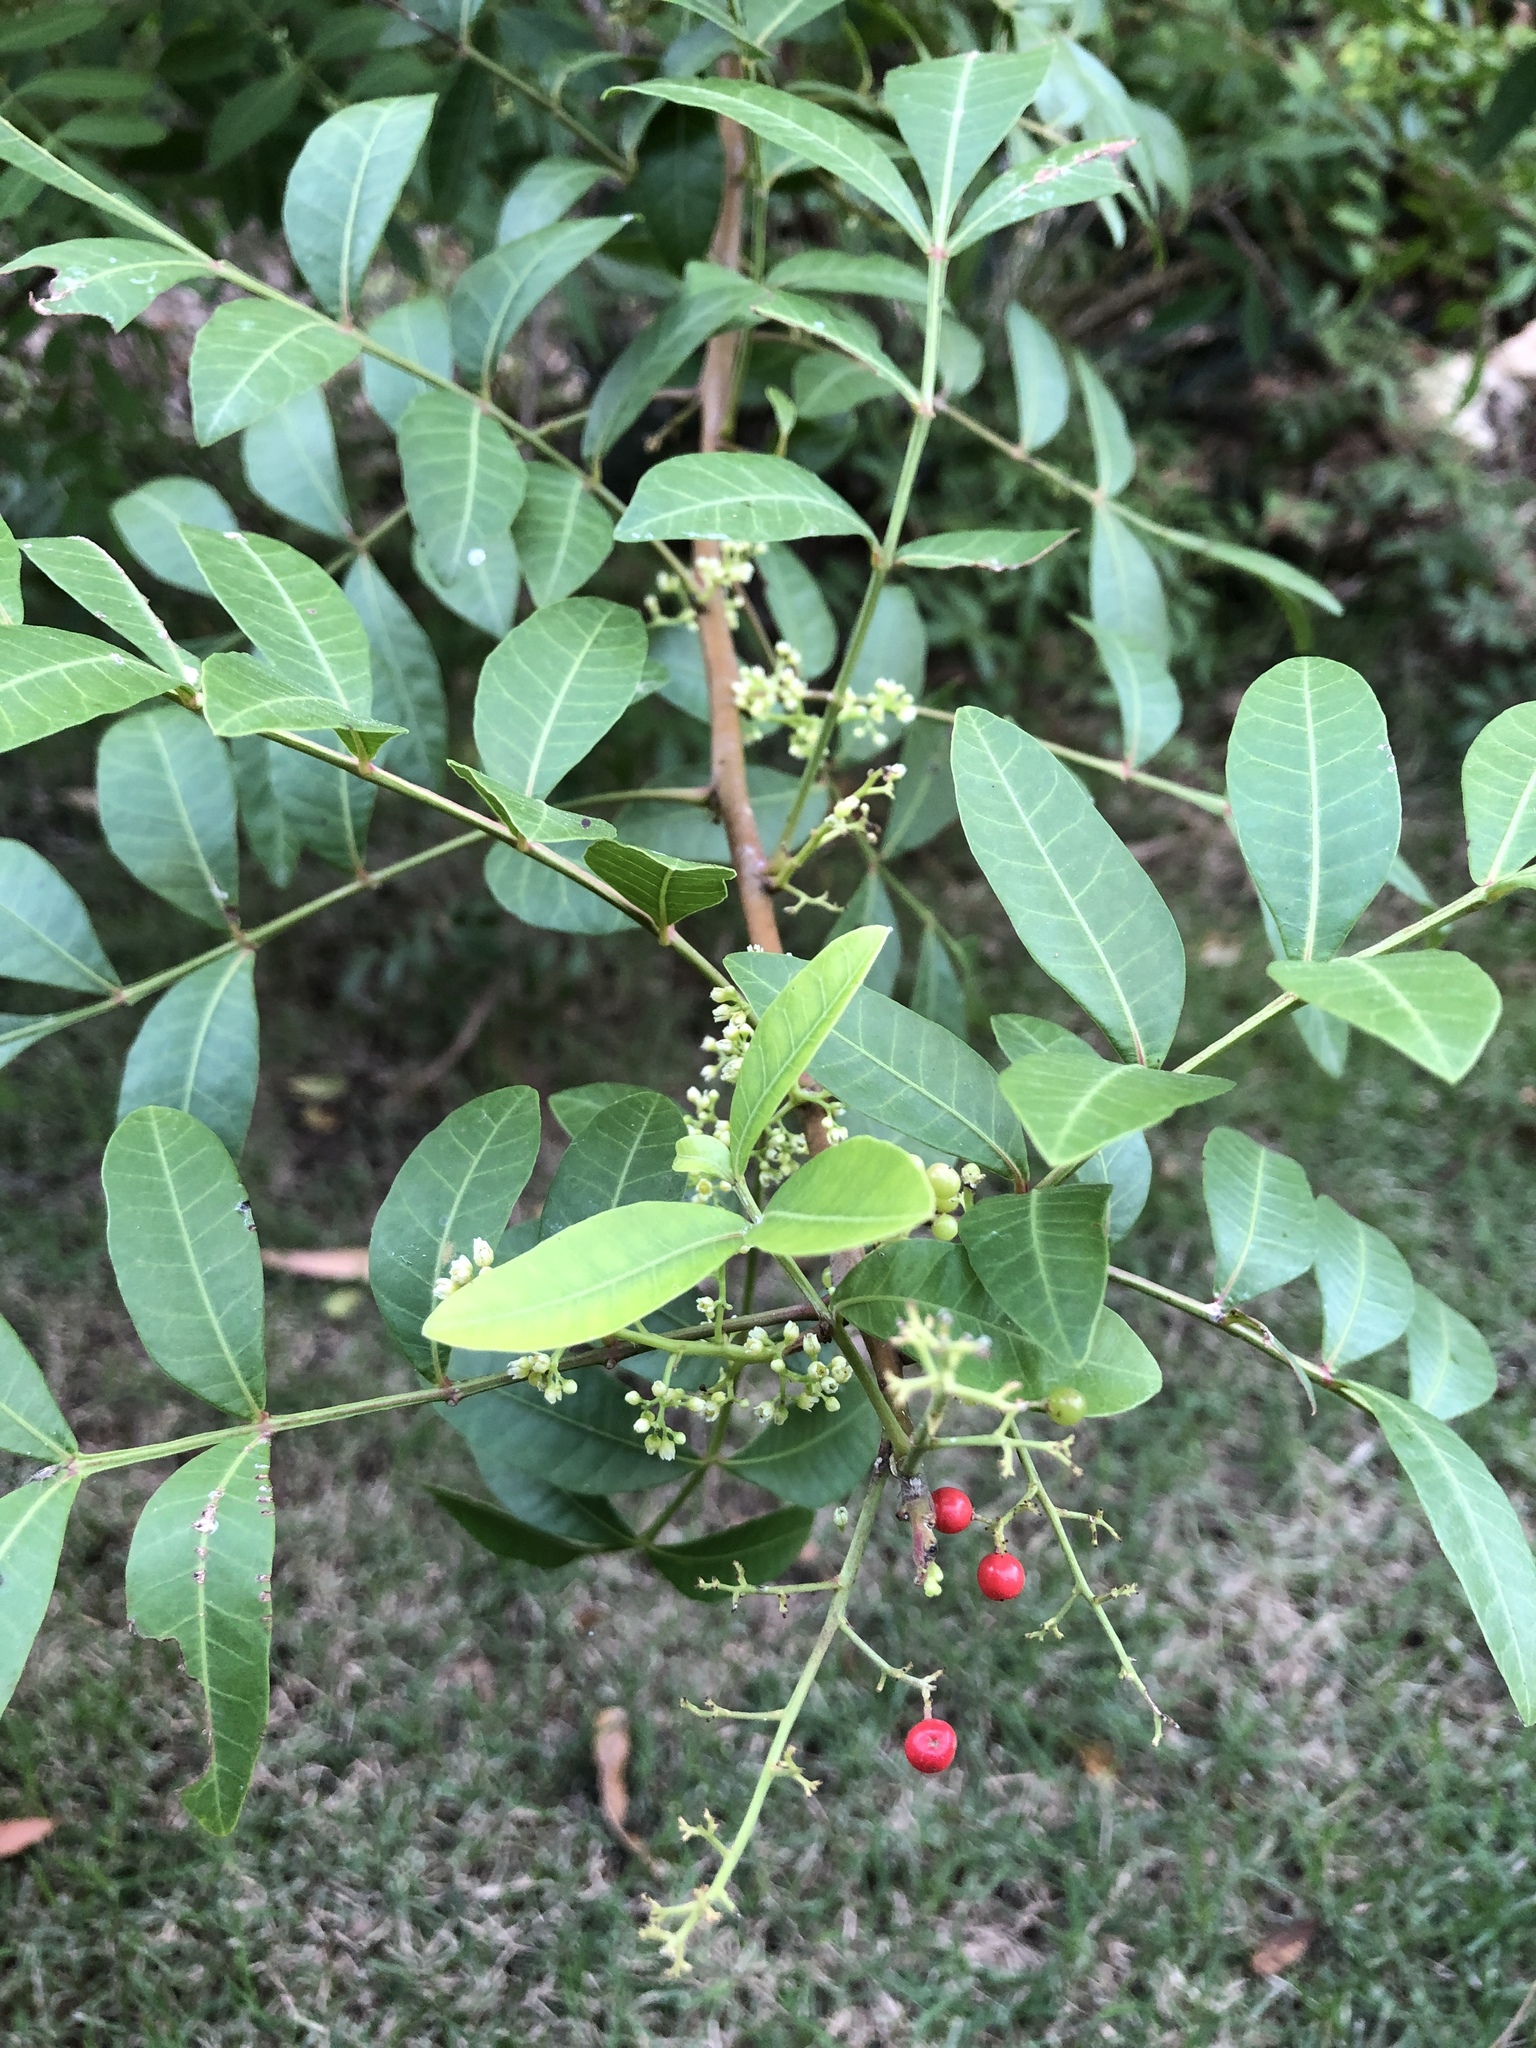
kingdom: Plantae
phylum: Tracheophyta
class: Magnoliopsida
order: Sapindales
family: Anacardiaceae
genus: Schinus
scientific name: Schinus terebinthifolia
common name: Brazilian peppertree
